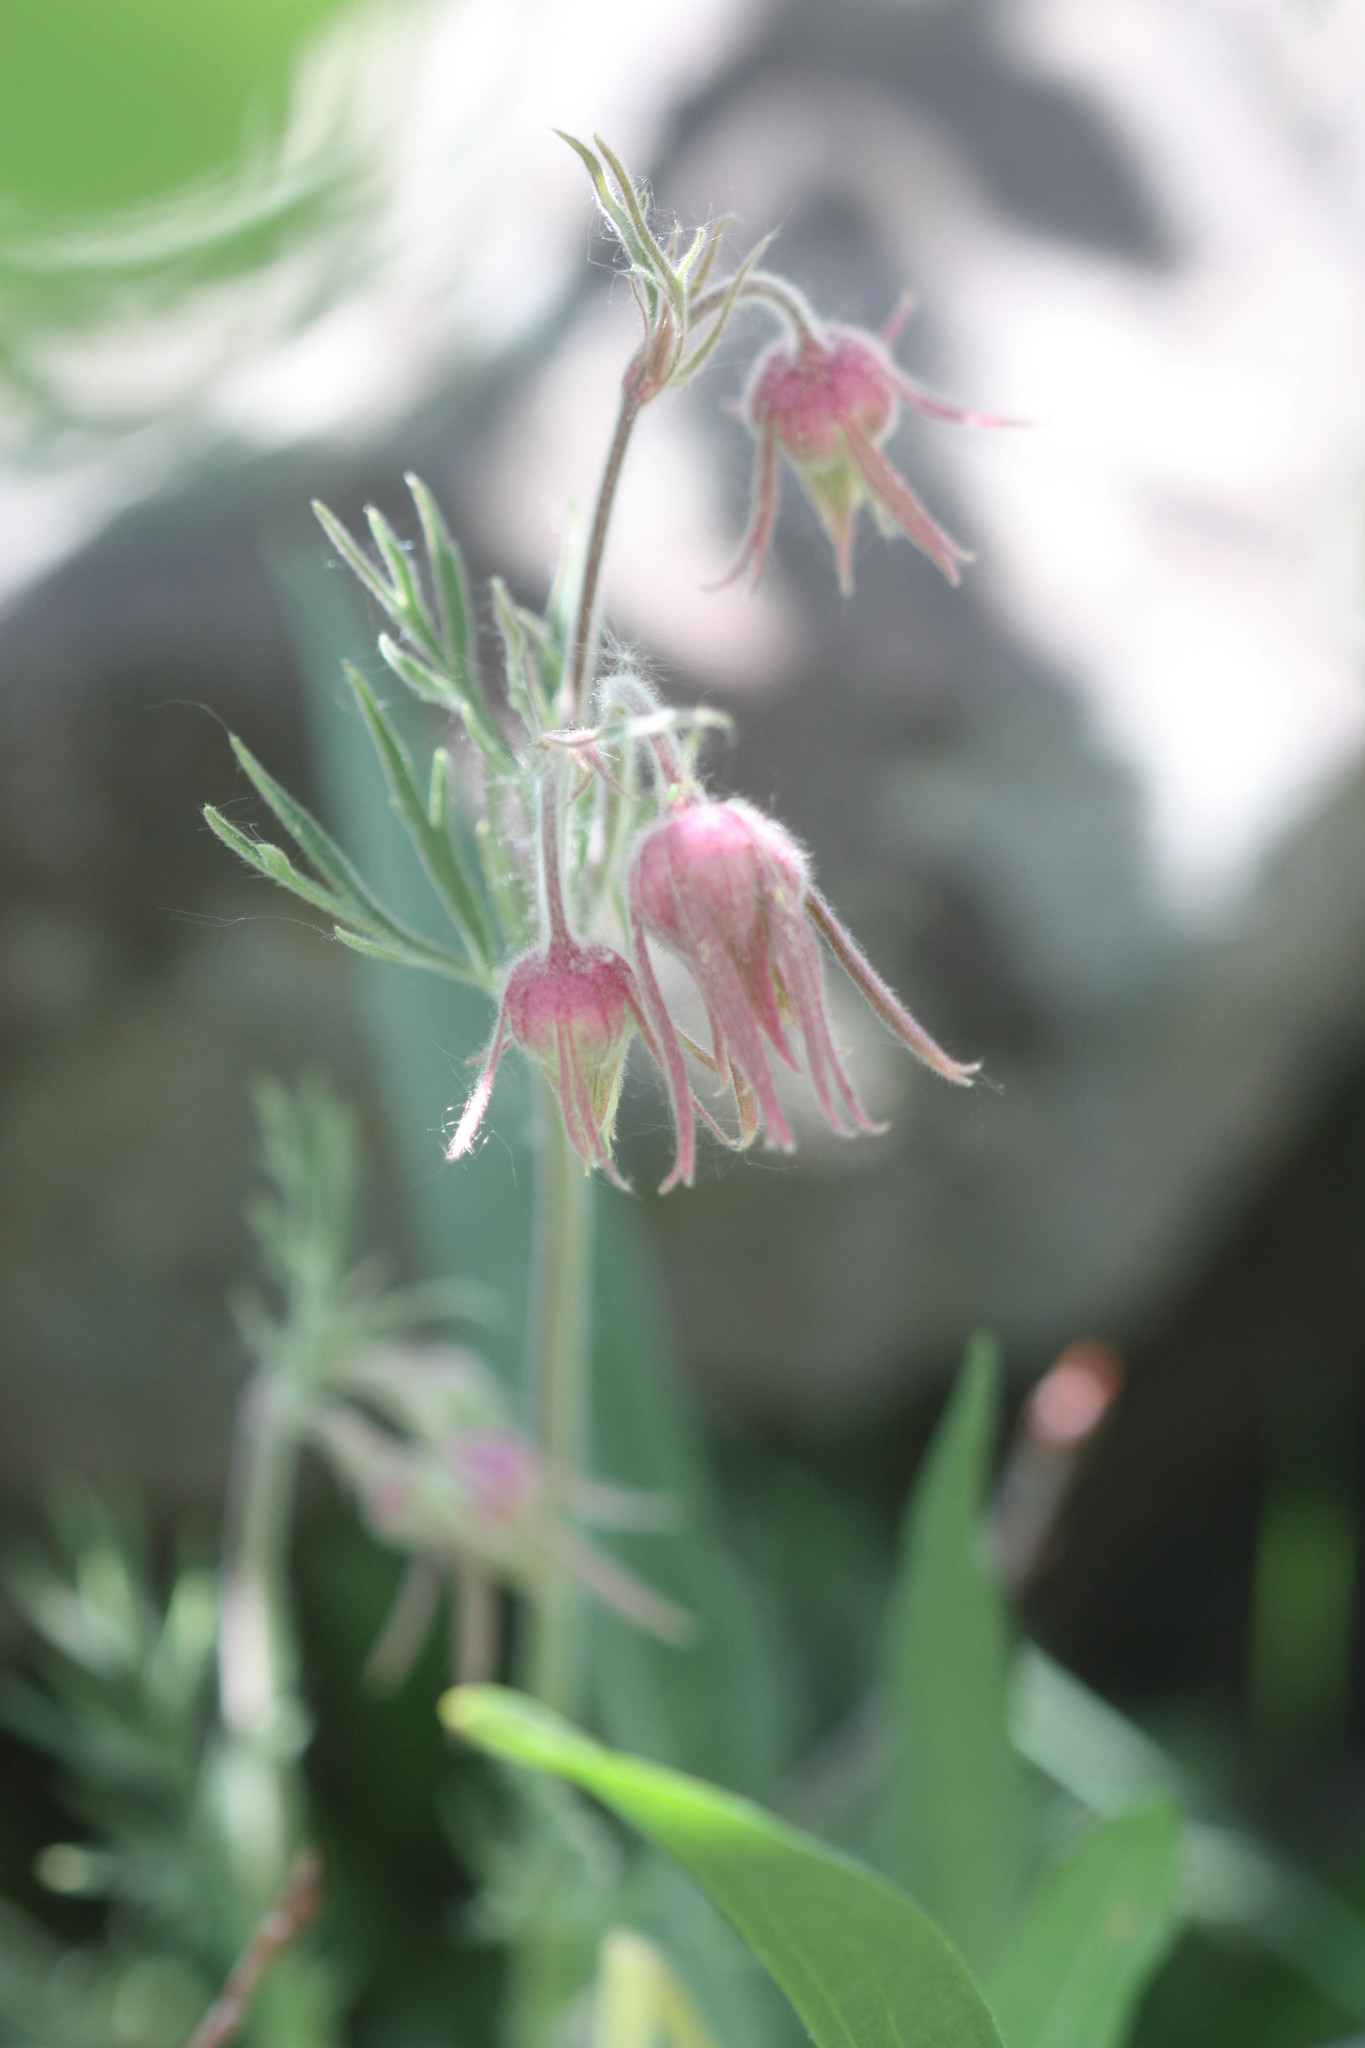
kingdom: Plantae
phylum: Tracheophyta
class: Magnoliopsida
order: Rosales
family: Rosaceae
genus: Geum
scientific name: Geum triflorum
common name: Old man's whiskers
